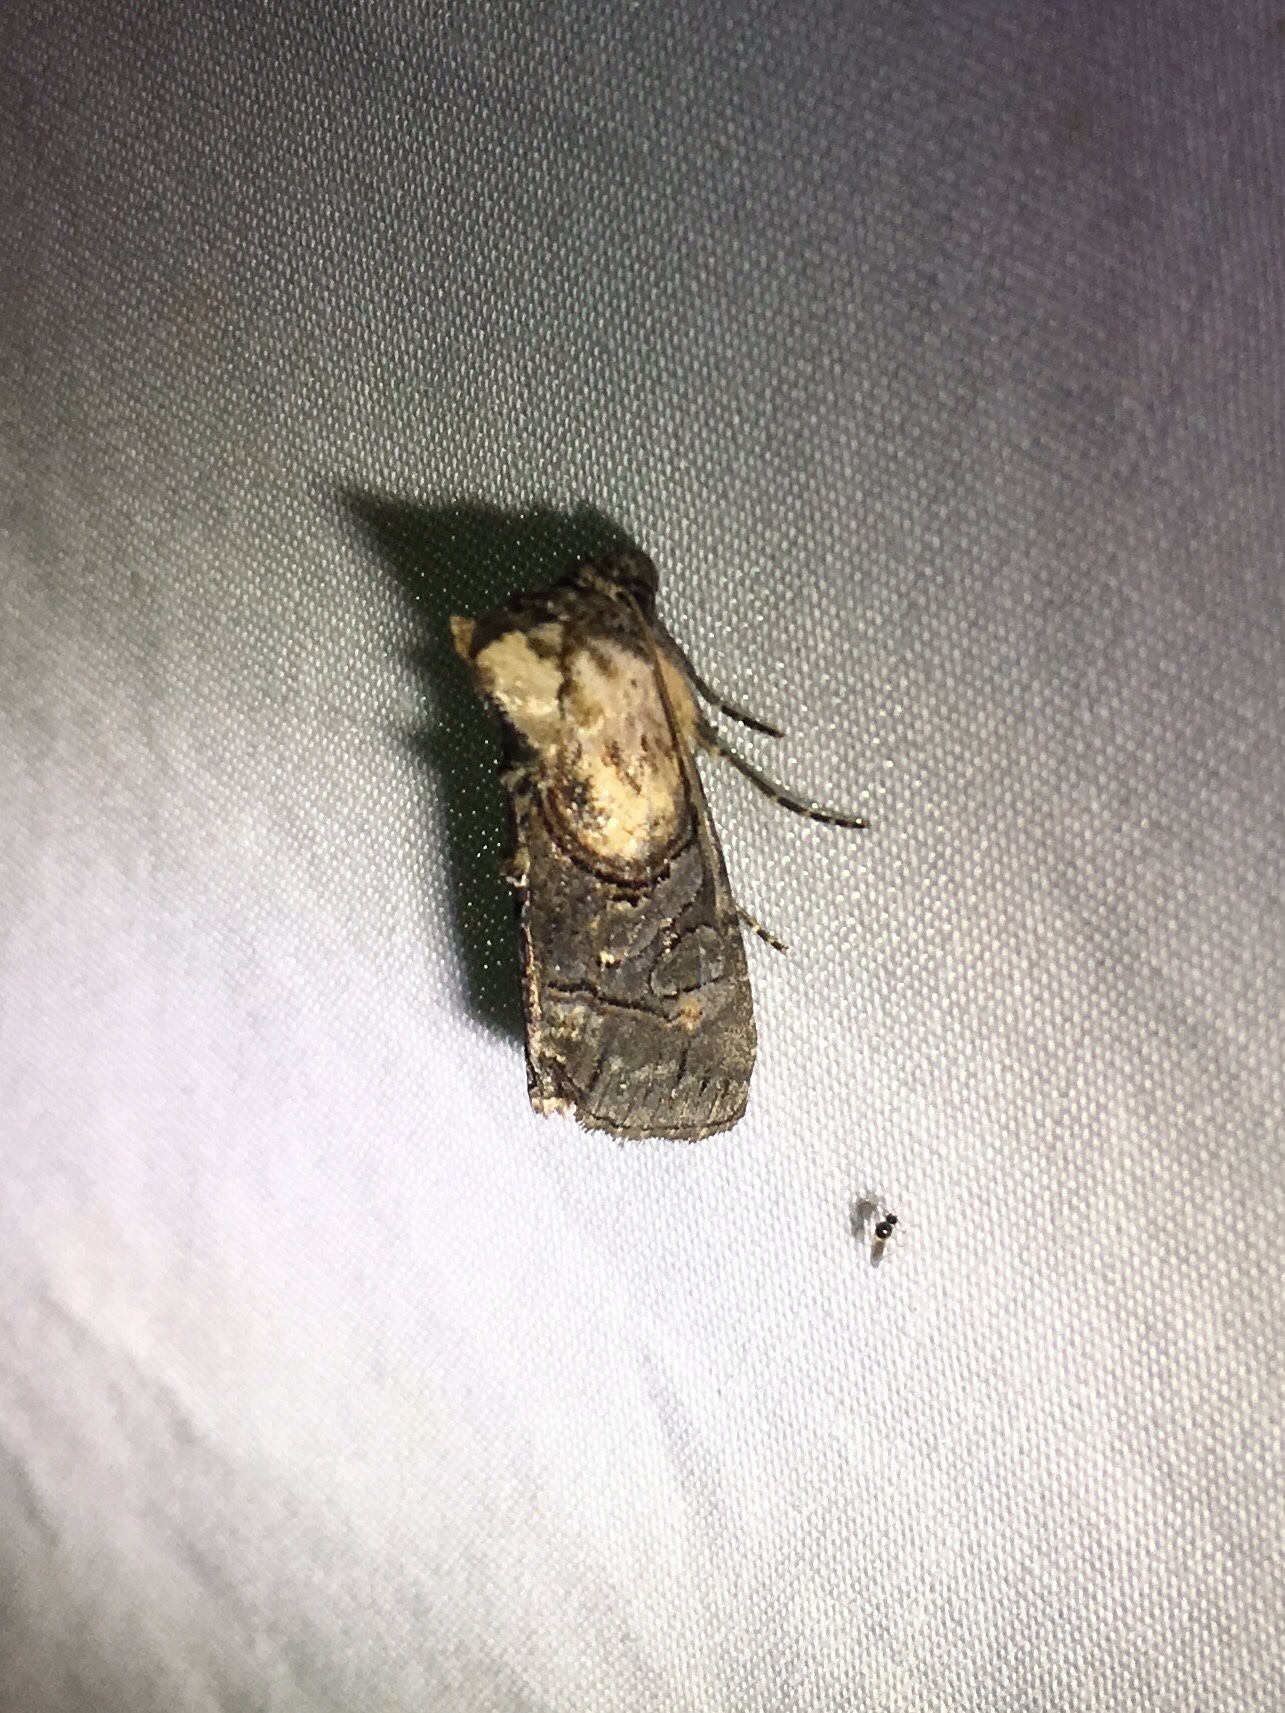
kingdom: Animalia
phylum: Arthropoda
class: Insecta
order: Lepidoptera
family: Noctuidae
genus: Abrostola
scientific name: Abrostola ovalis
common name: Oval abrostola
